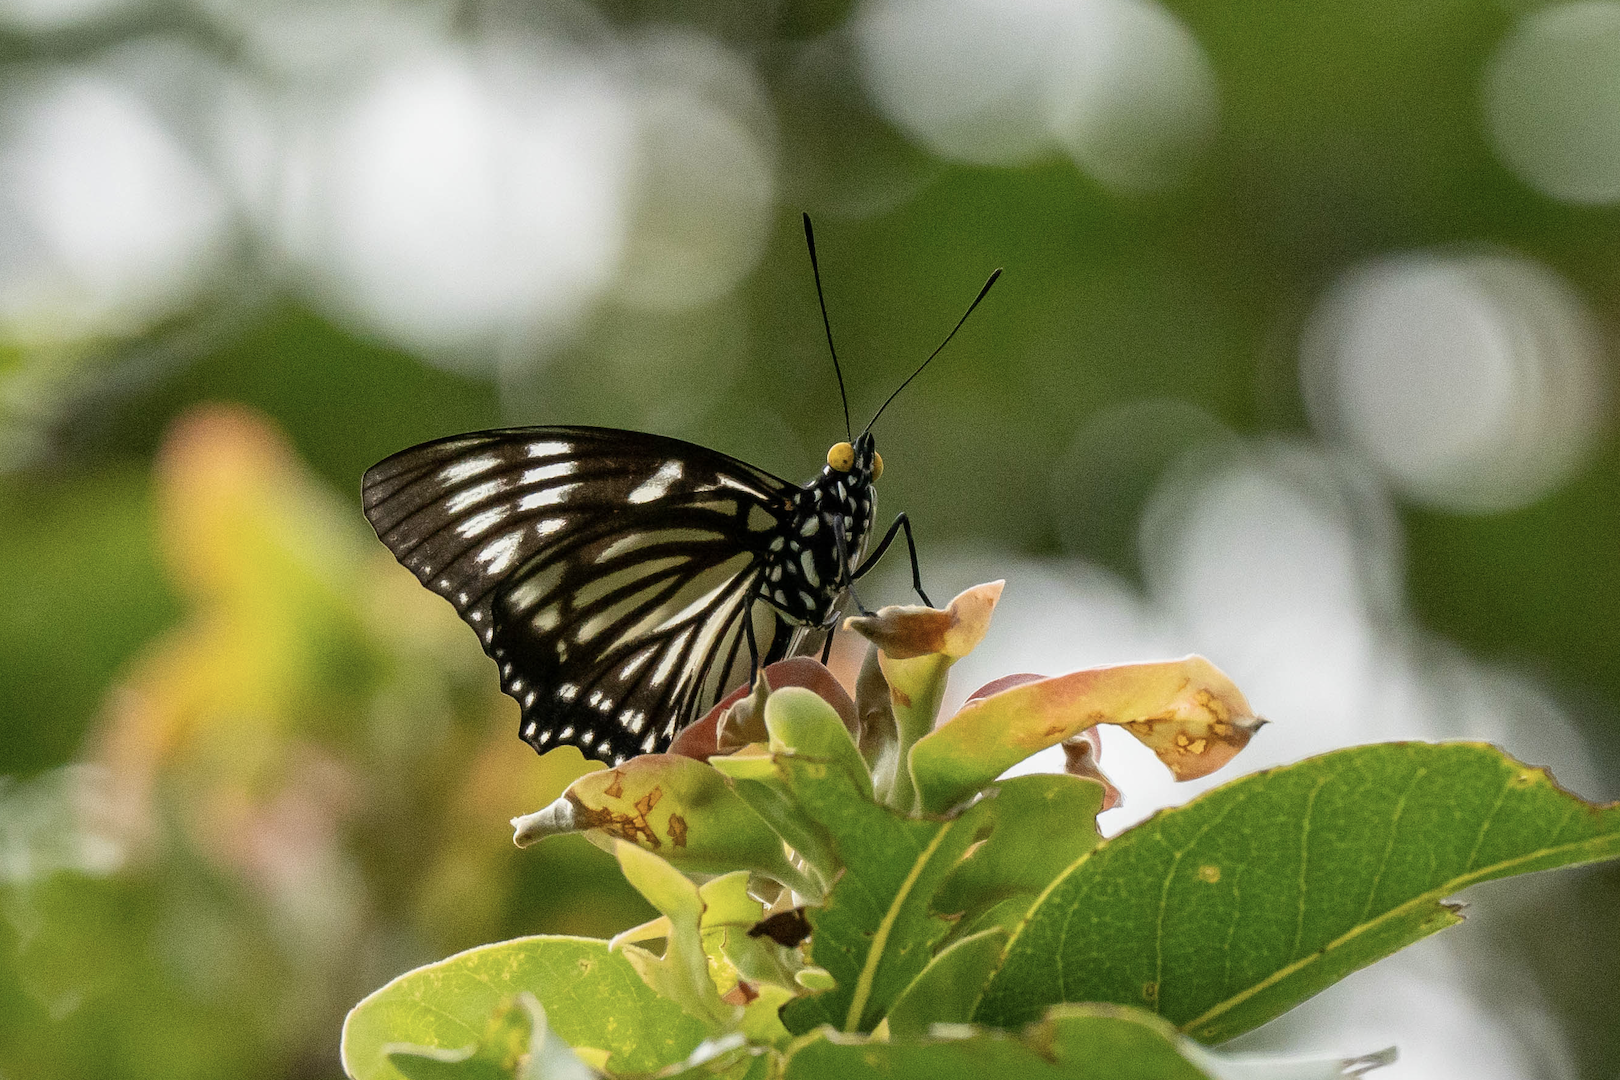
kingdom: Animalia
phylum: Arthropoda
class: Insecta
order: Lepidoptera
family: Nymphalidae
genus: Euripus
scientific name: Euripus nyctelius
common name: Courtesan
